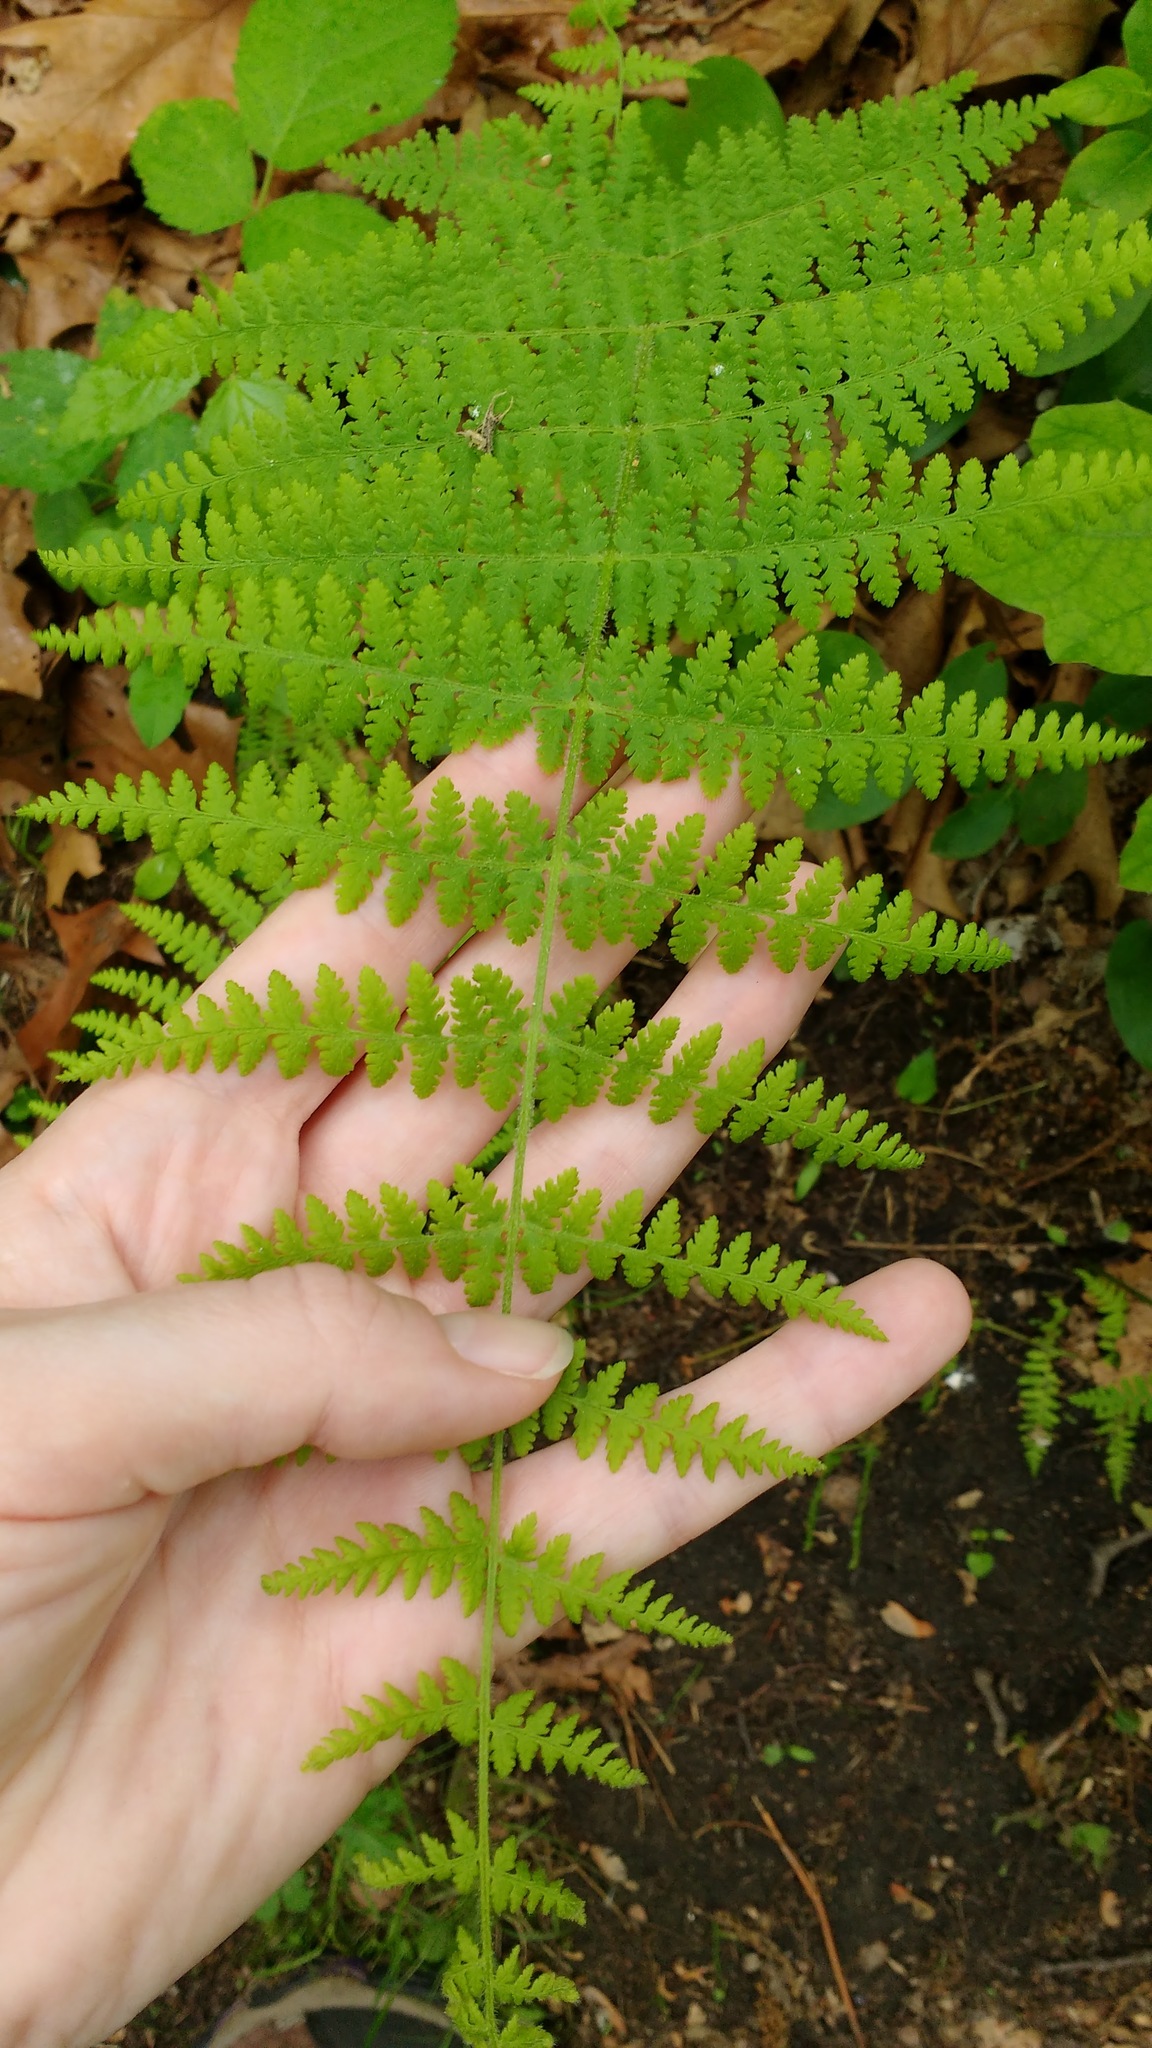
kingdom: Plantae
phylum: Tracheophyta
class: Polypodiopsida
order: Polypodiales
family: Dennstaedtiaceae
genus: Sitobolium
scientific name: Sitobolium punctilobum
